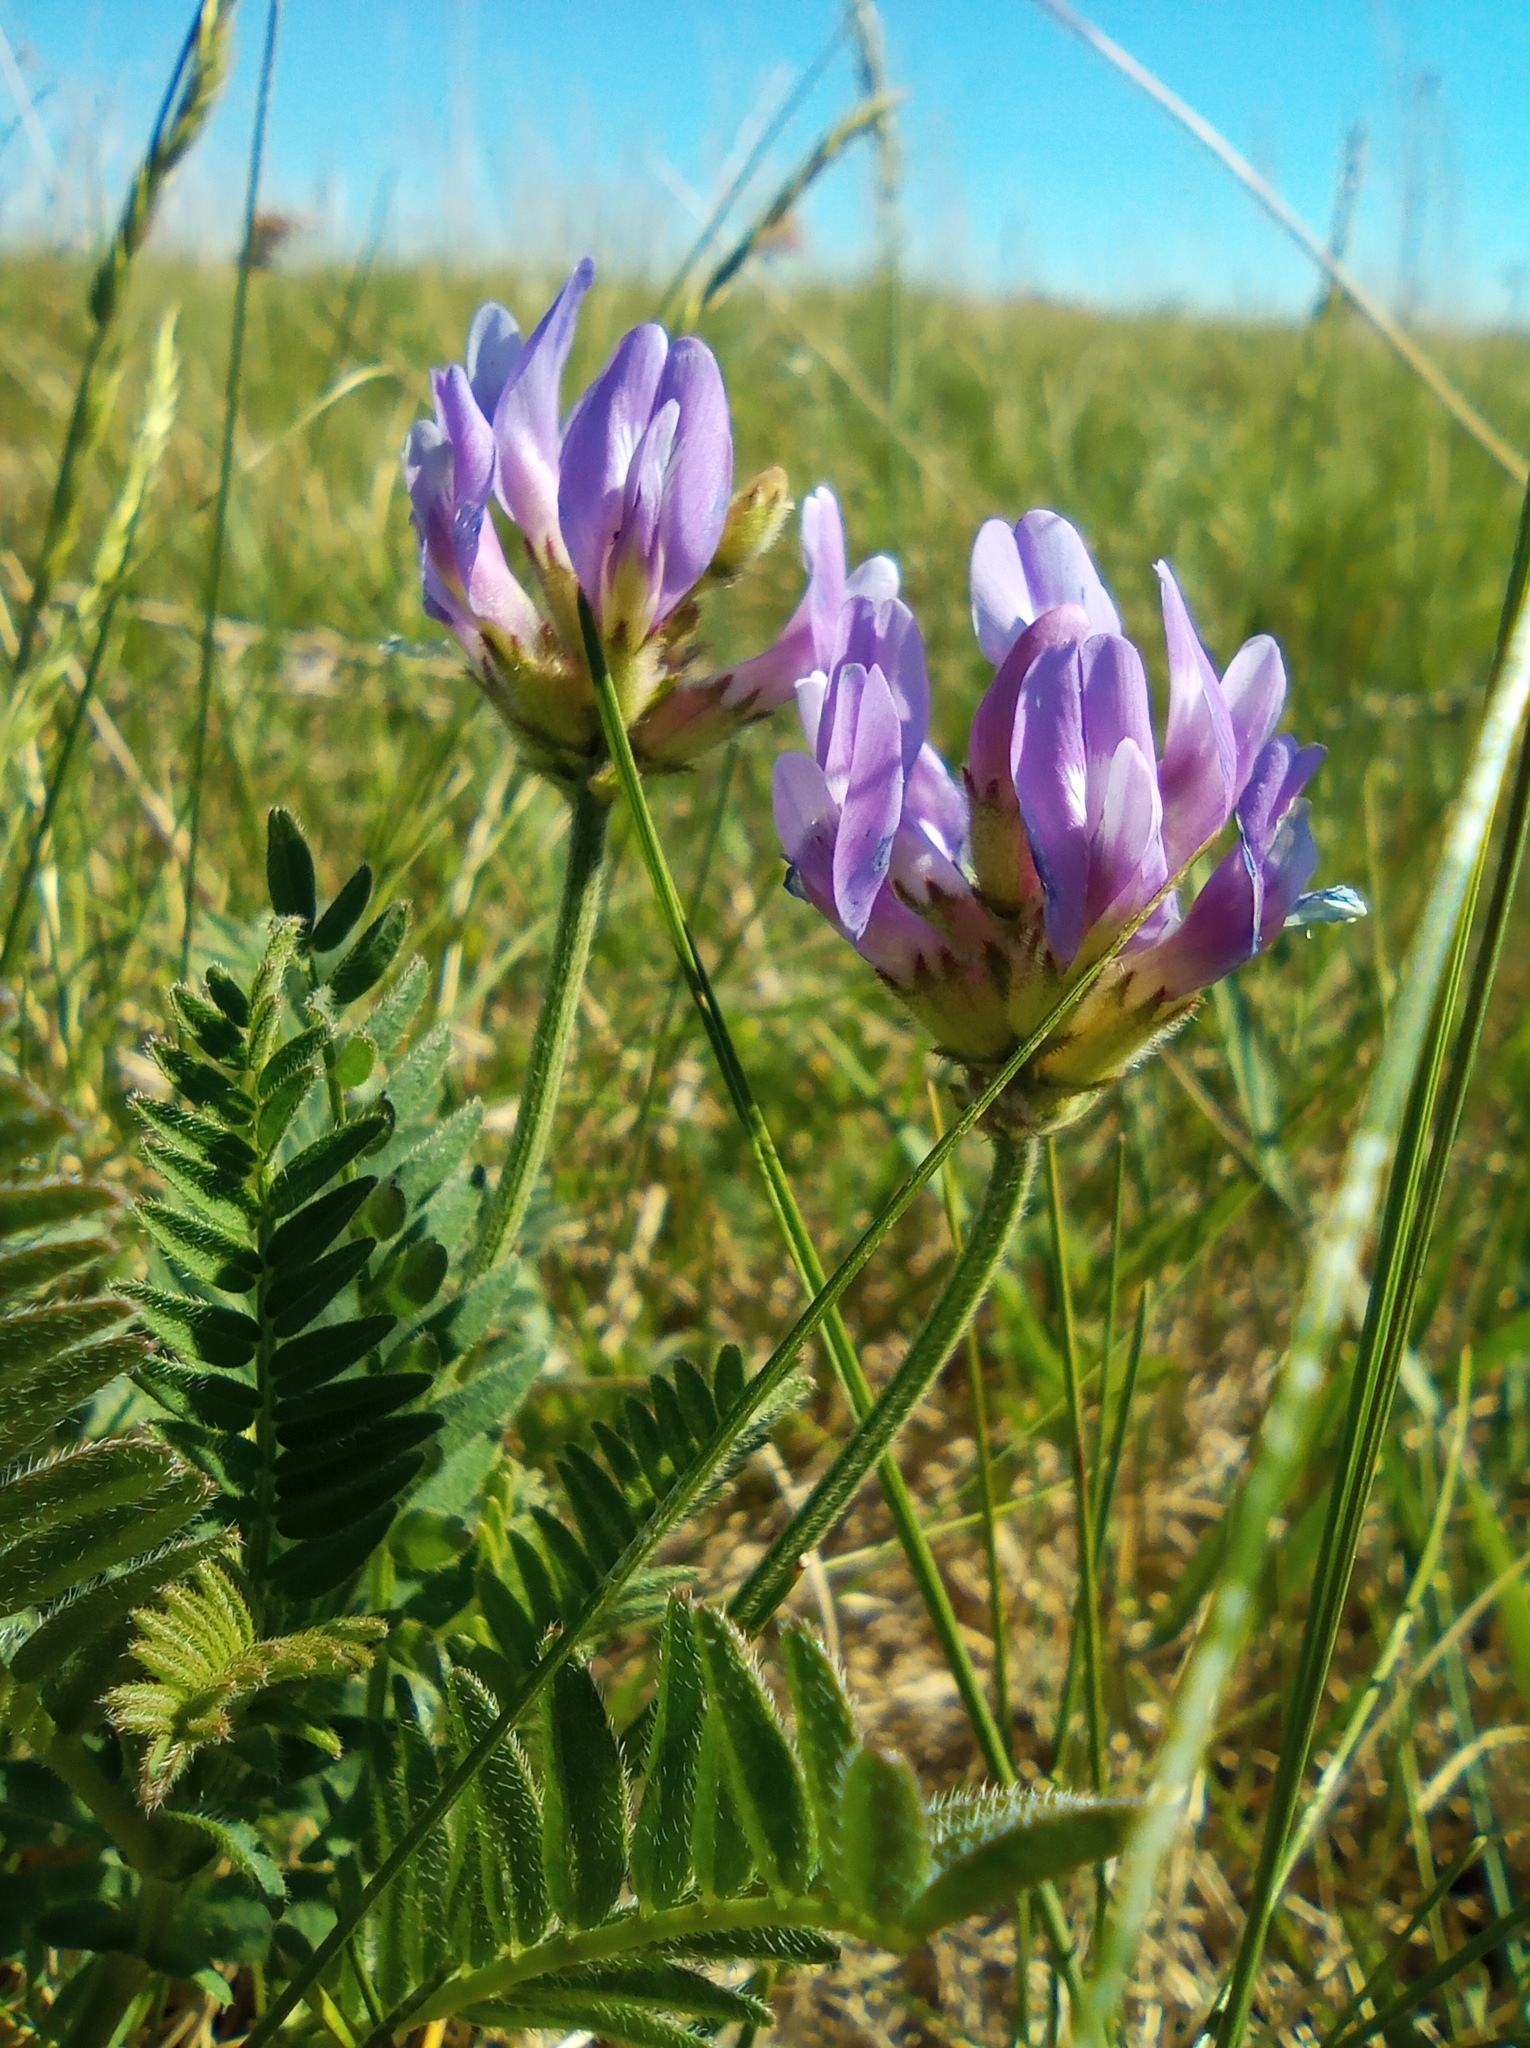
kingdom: Plantae
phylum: Tracheophyta
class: Magnoliopsida
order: Fabales
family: Fabaceae
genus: Astragalus
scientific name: Astragalus danicus
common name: Purple milk-vetch
